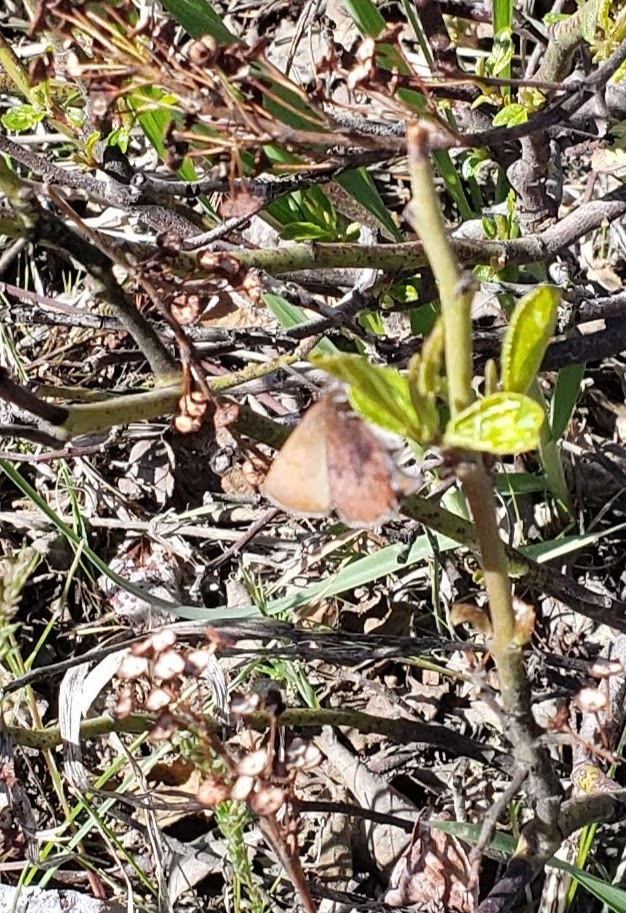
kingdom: Animalia
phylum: Arthropoda
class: Insecta
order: Lepidoptera
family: Lycaenidae
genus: Incisalia
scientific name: Incisalia irioides
